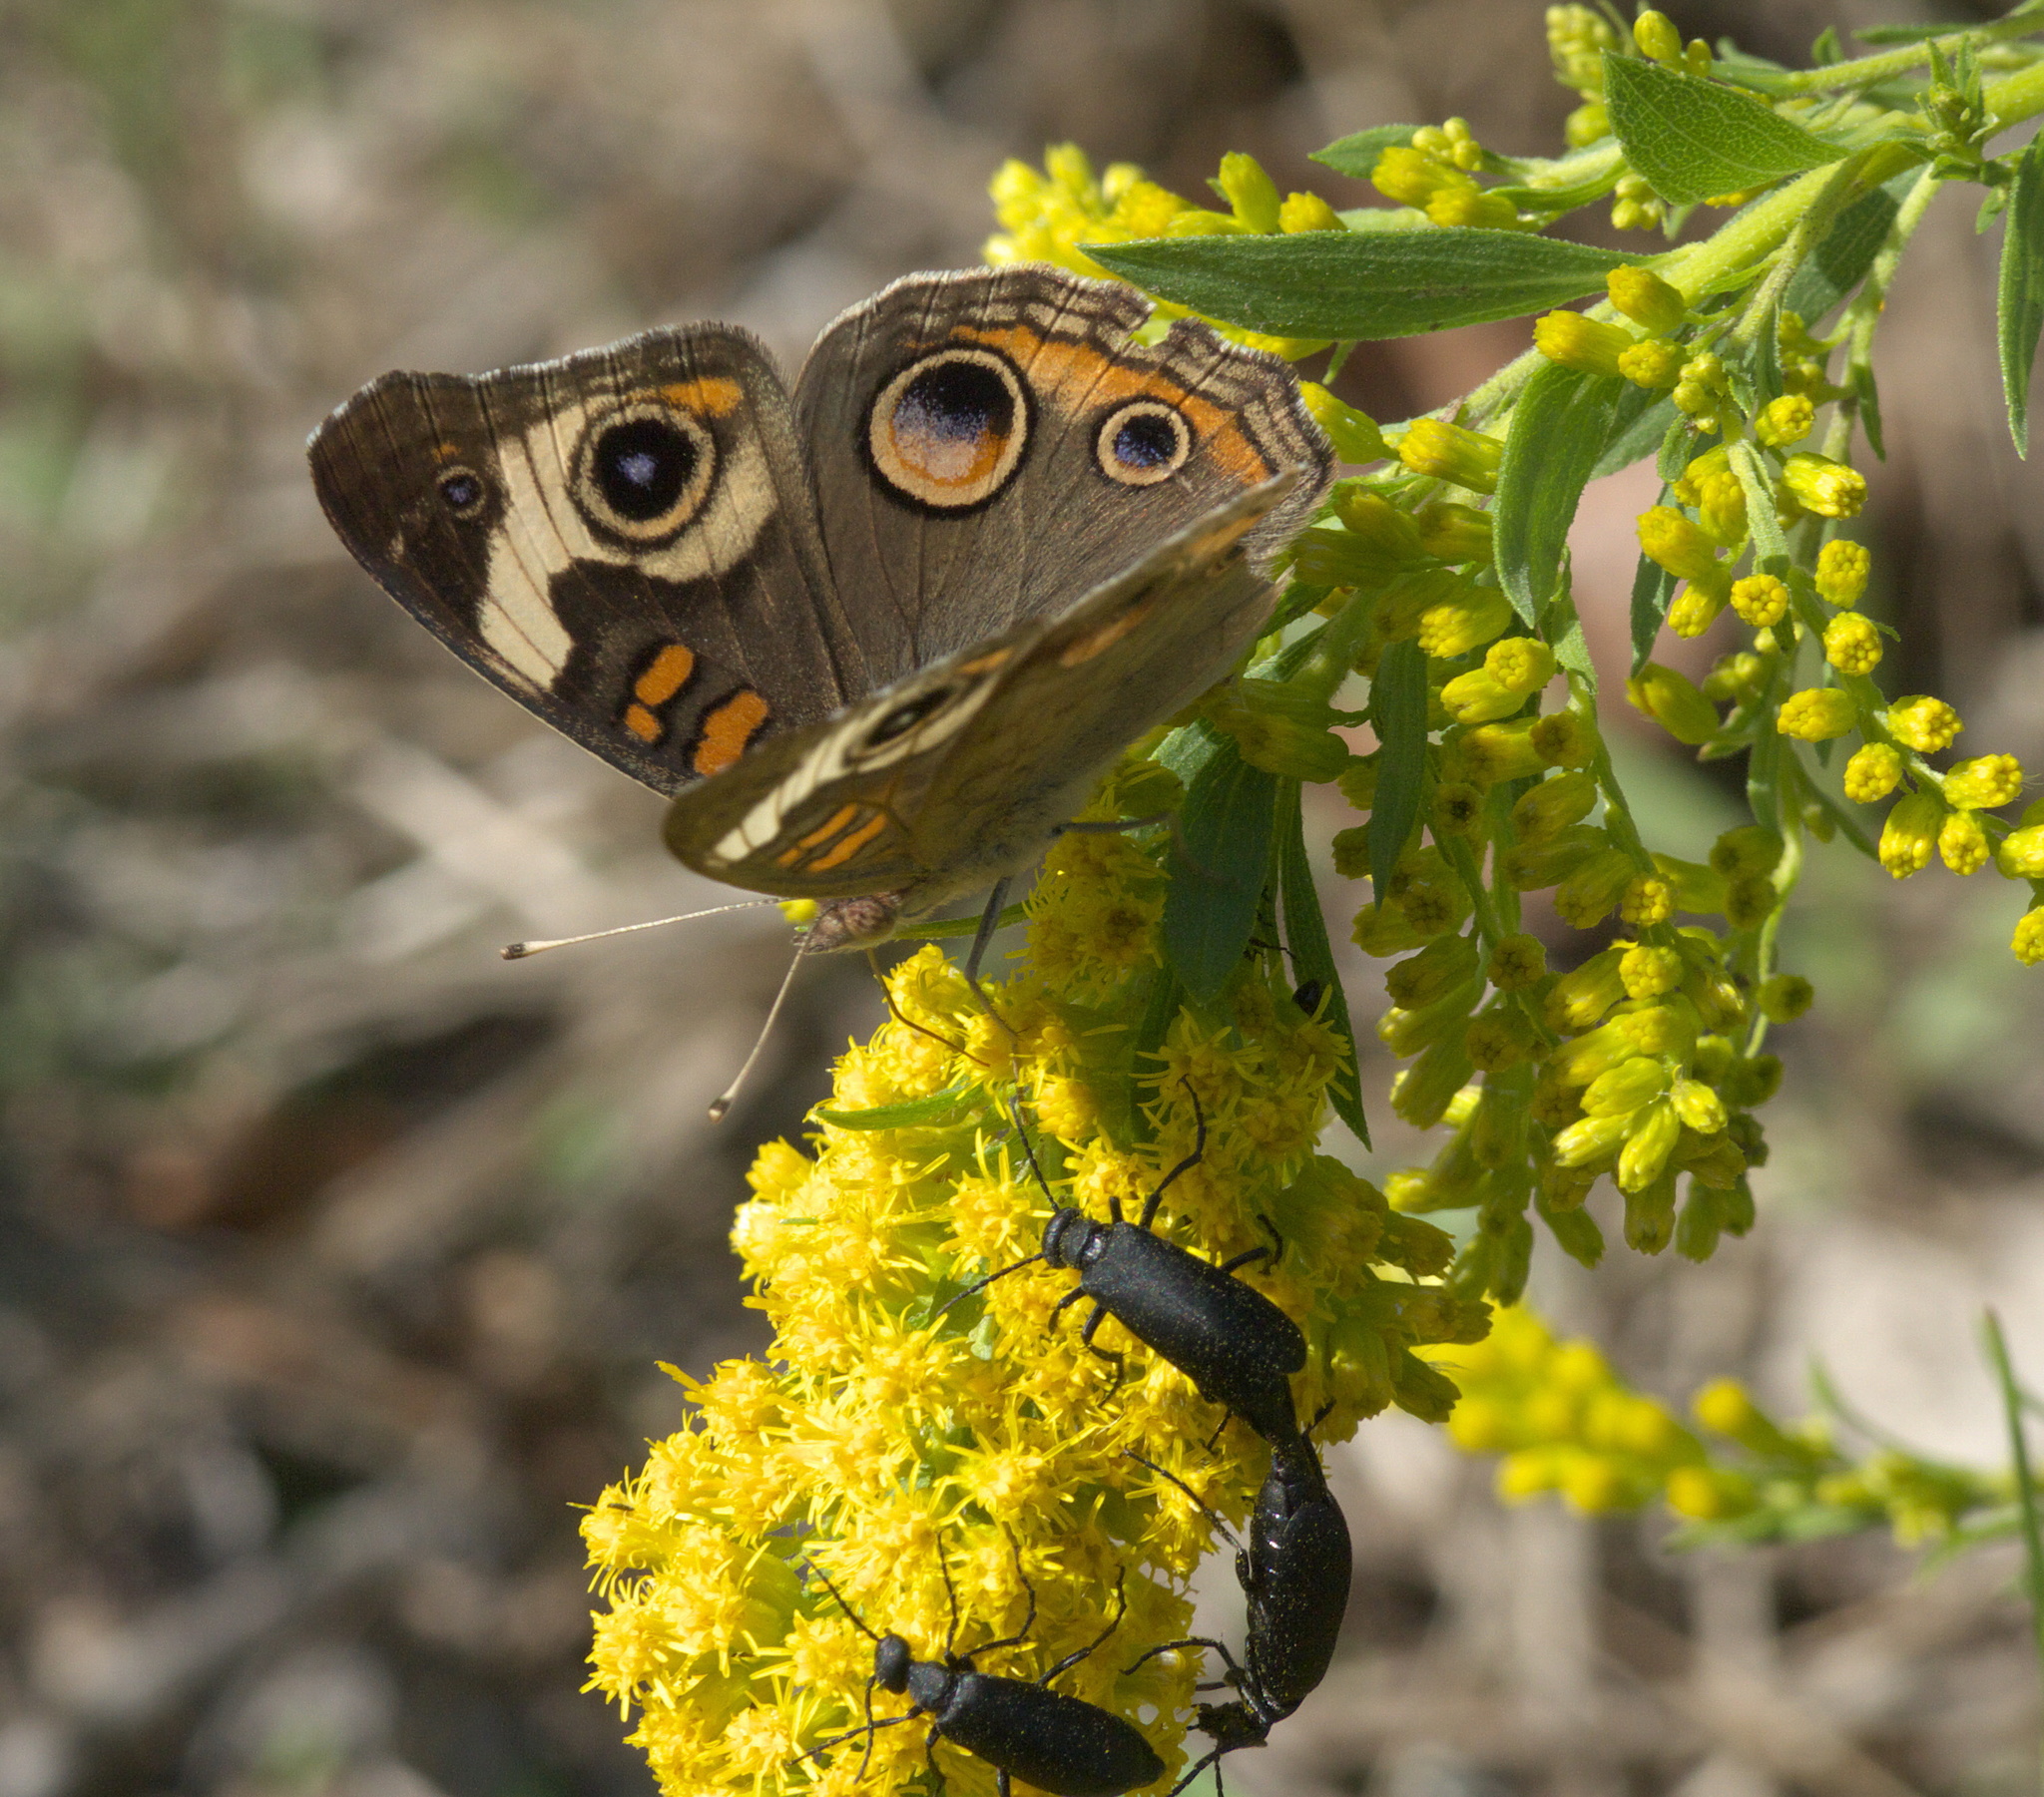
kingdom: Animalia
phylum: Arthropoda
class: Insecta
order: Lepidoptera
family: Nymphalidae
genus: Junonia
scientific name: Junonia coenia
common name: Common buckeye
